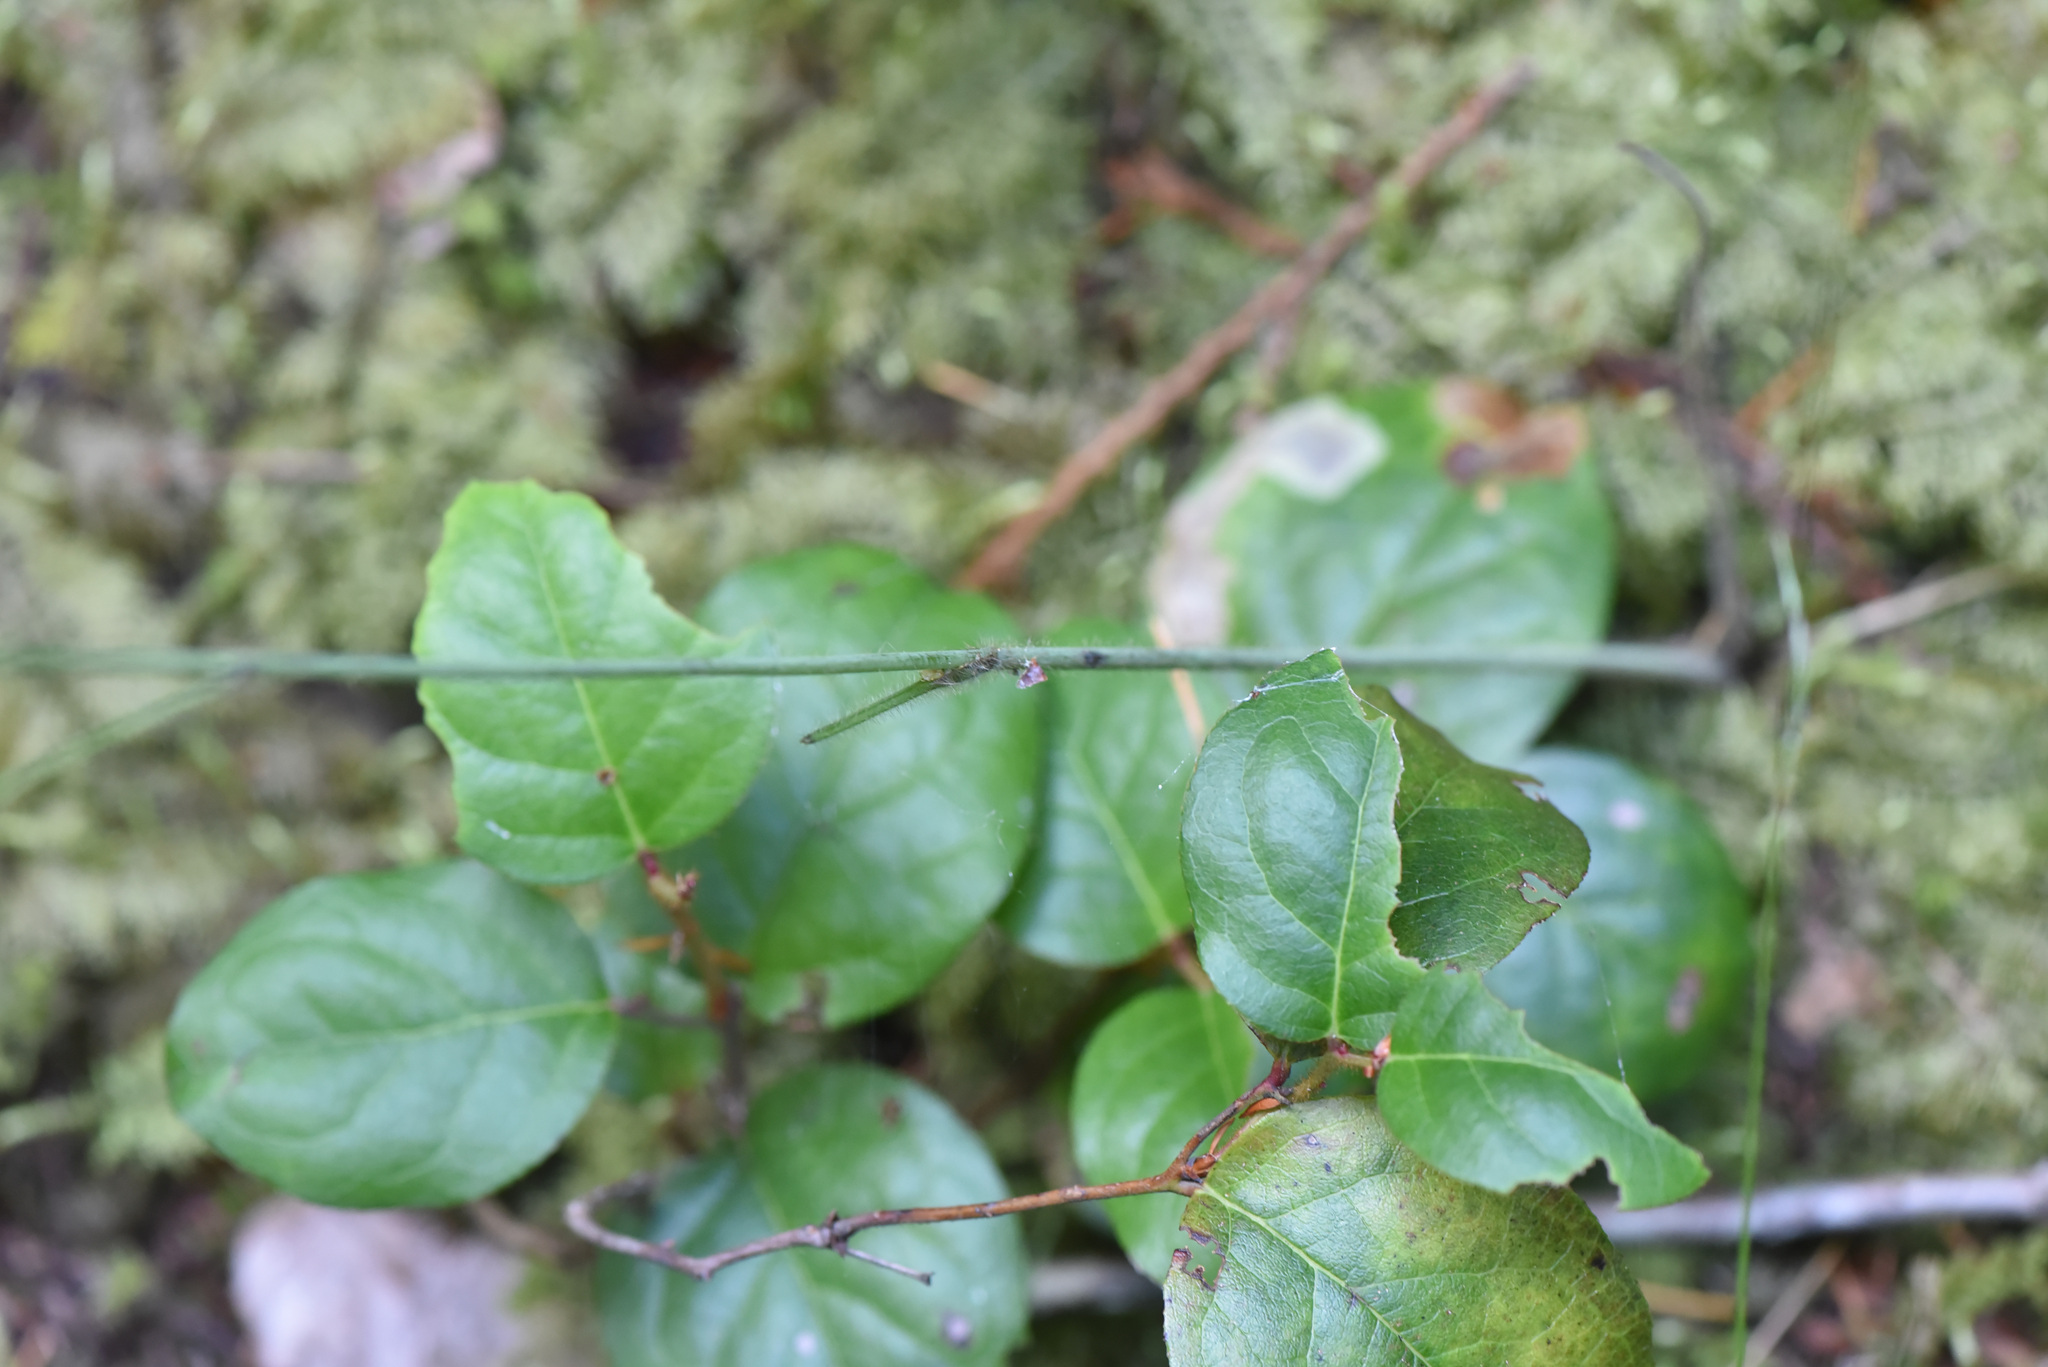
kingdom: Plantae
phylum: Tracheophyta
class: Magnoliopsida
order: Ericales
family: Ericaceae
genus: Gaultheria
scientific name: Gaultheria shallon
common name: Shallon
